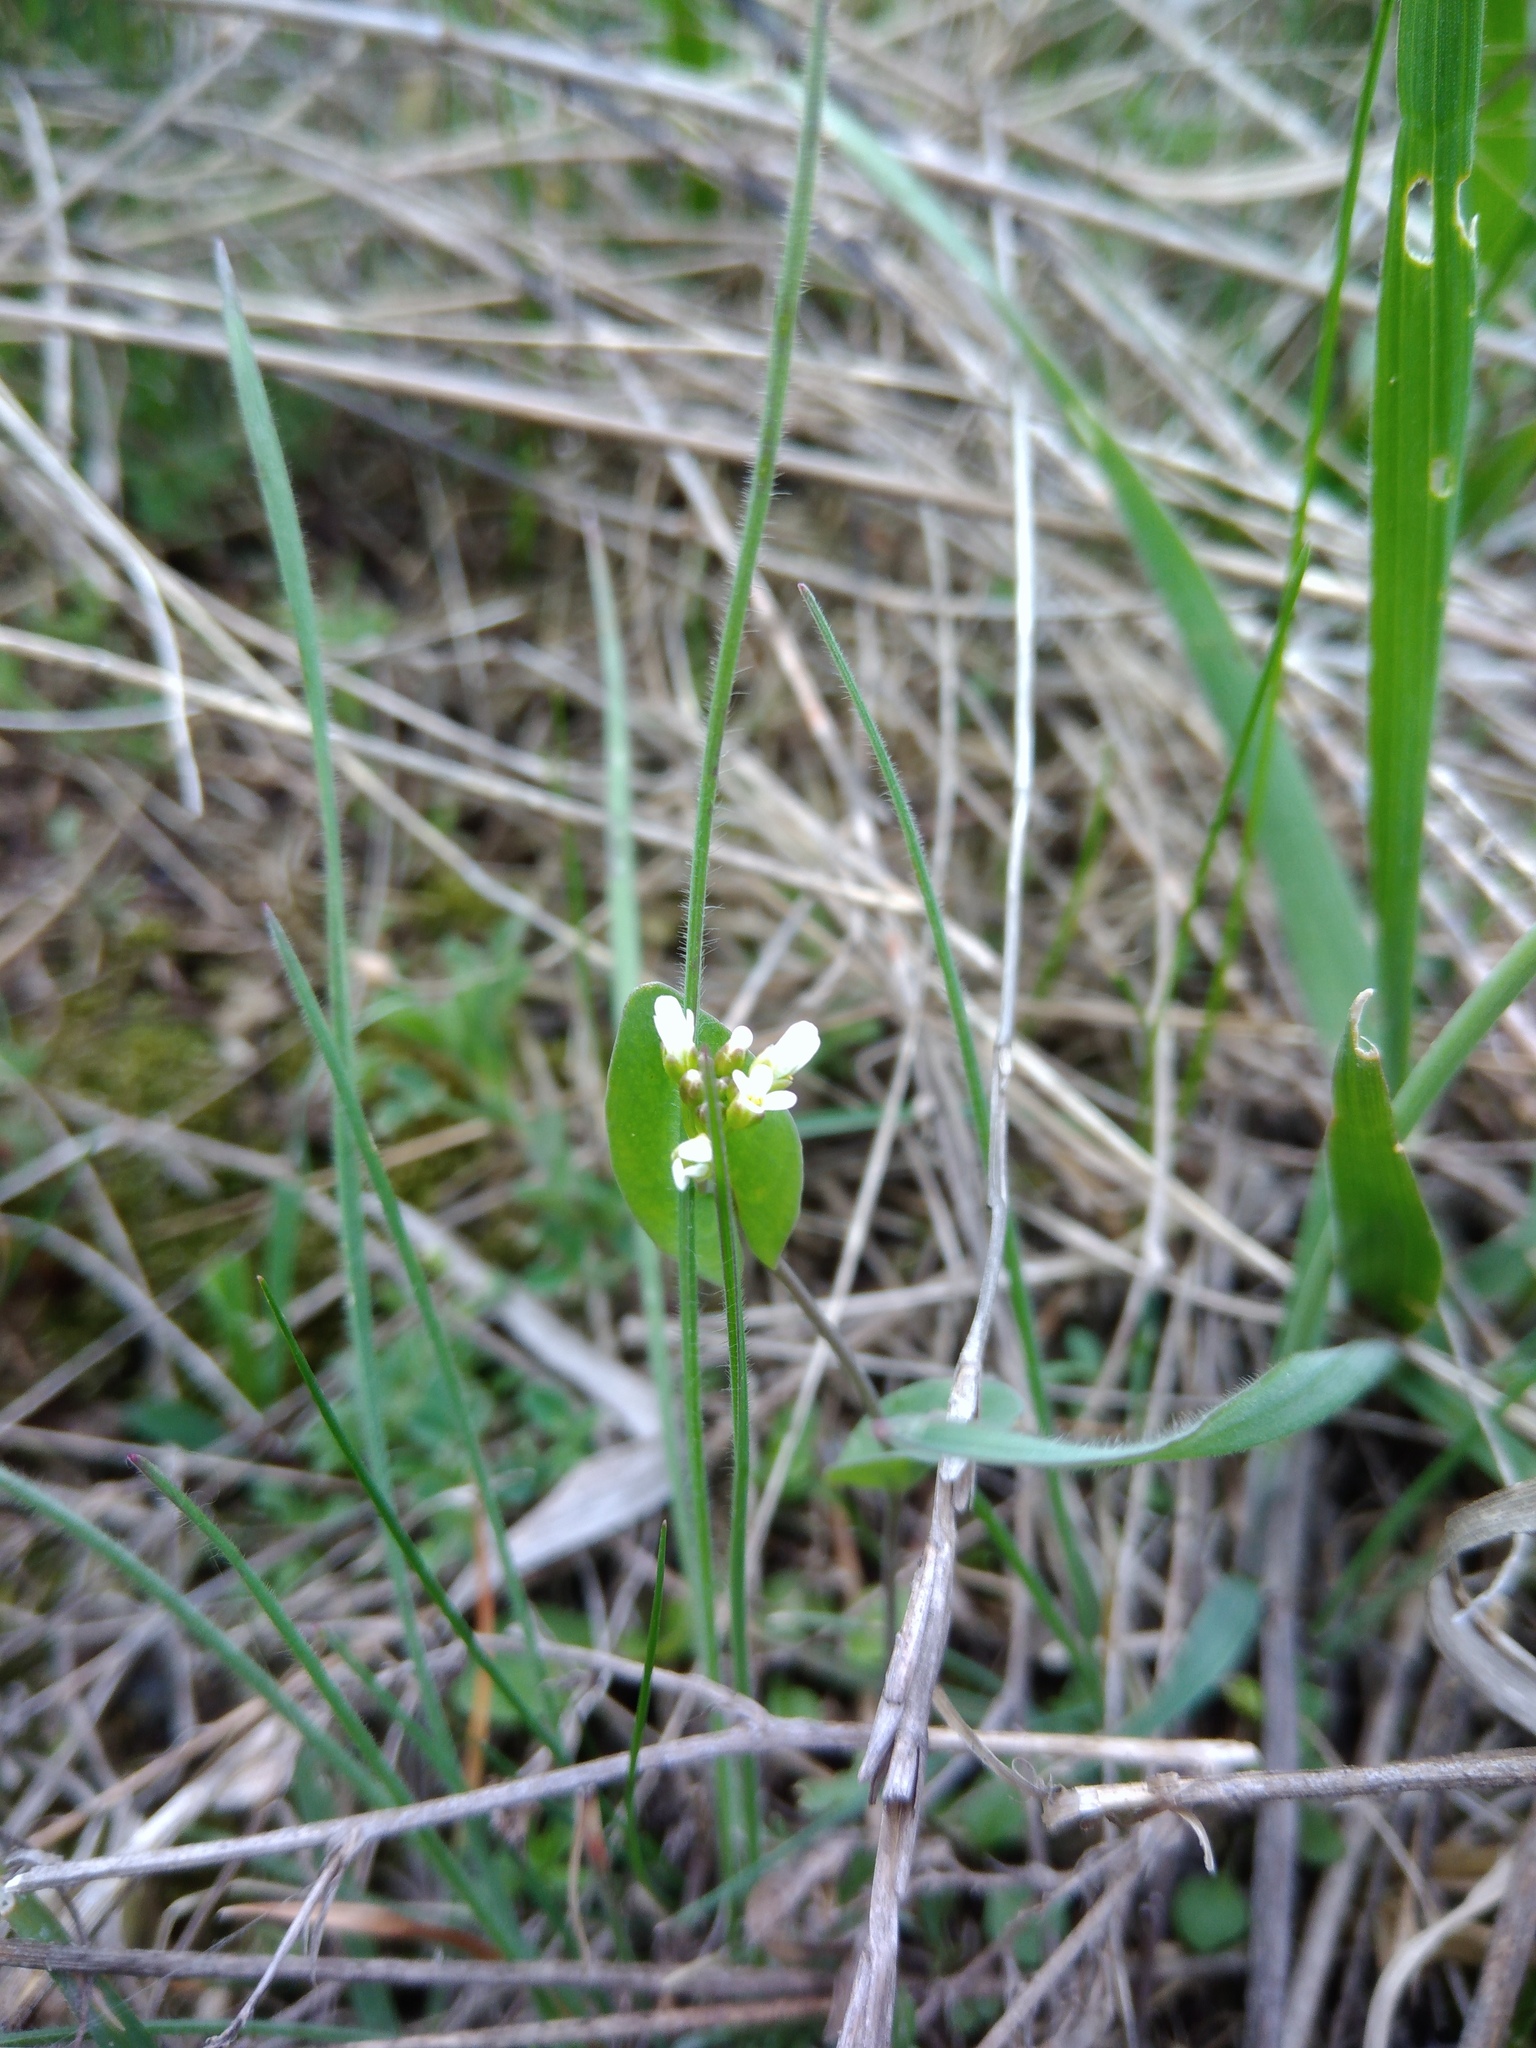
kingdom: Plantae
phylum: Tracheophyta
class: Magnoliopsida
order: Brassicales
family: Brassicaceae
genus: Noccaea
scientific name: Noccaea perfoliata
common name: Perfoliate pennycress
